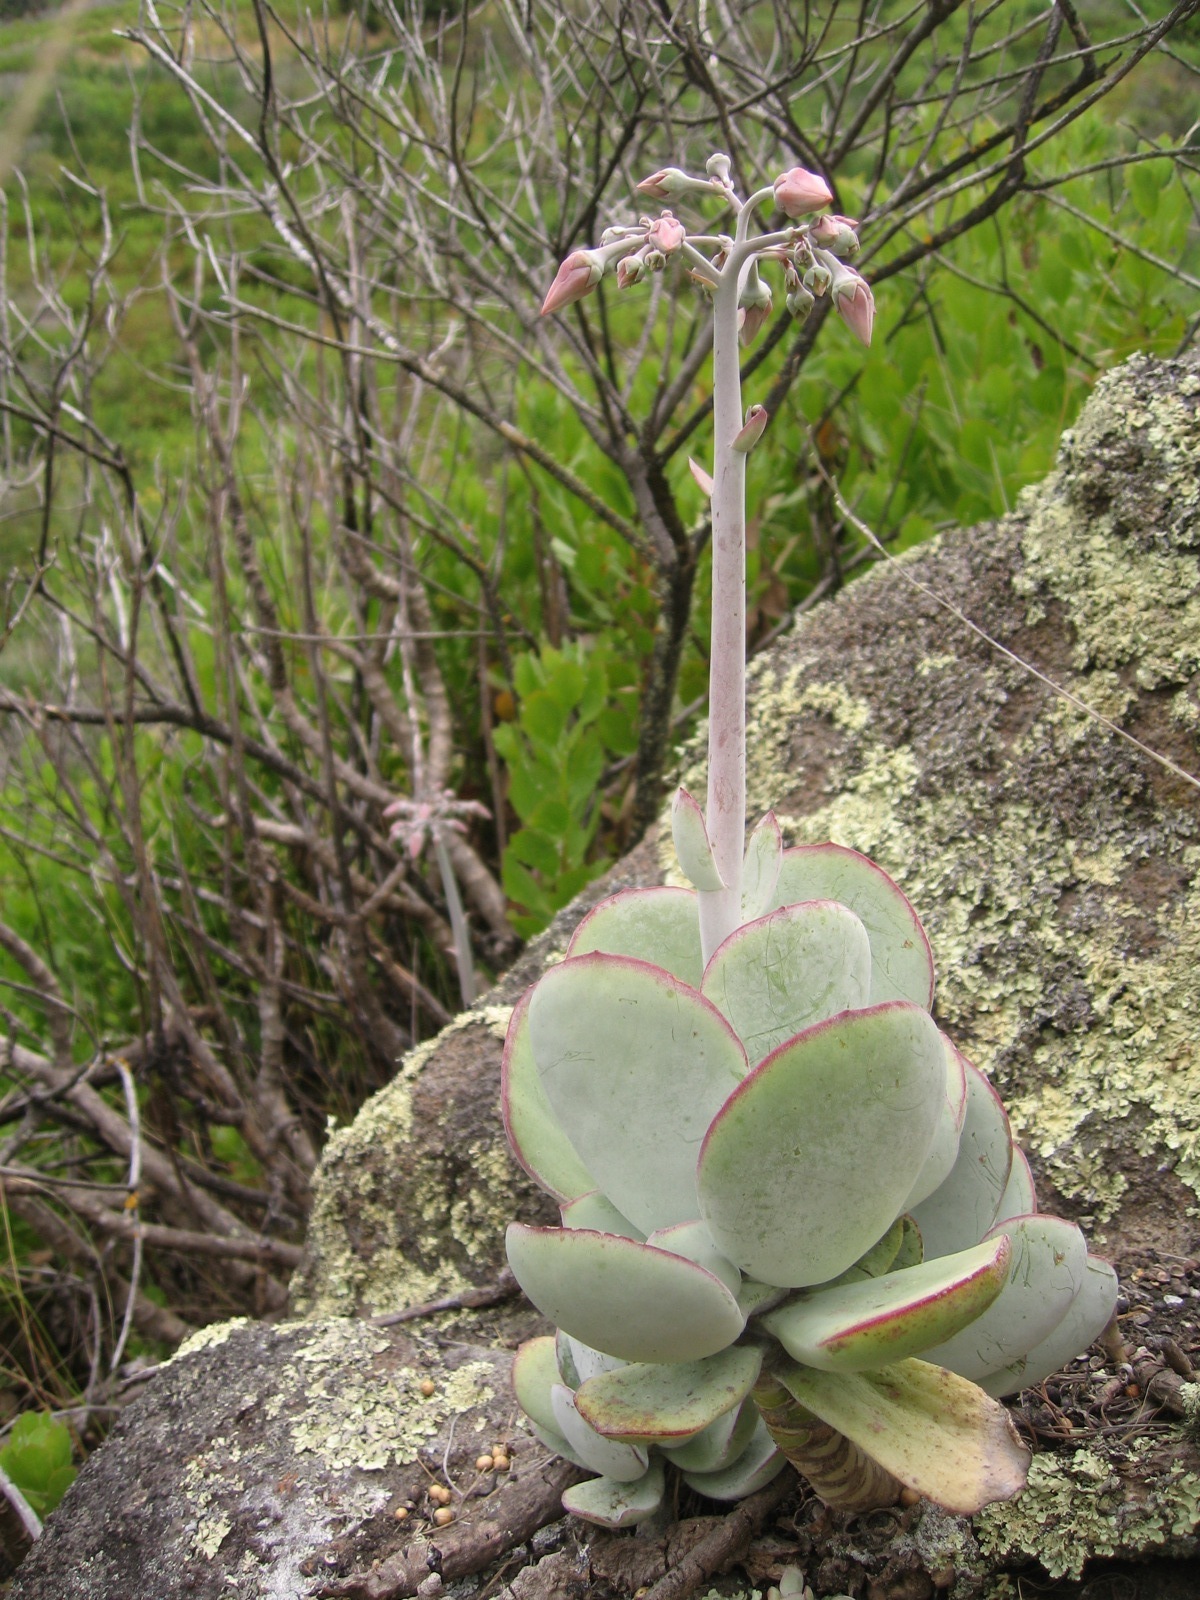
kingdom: Plantae
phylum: Tracheophyta
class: Magnoliopsida
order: Saxifragales
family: Crassulaceae
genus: Cotyledon
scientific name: Cotyledon orbiculata
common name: Pig's ear
